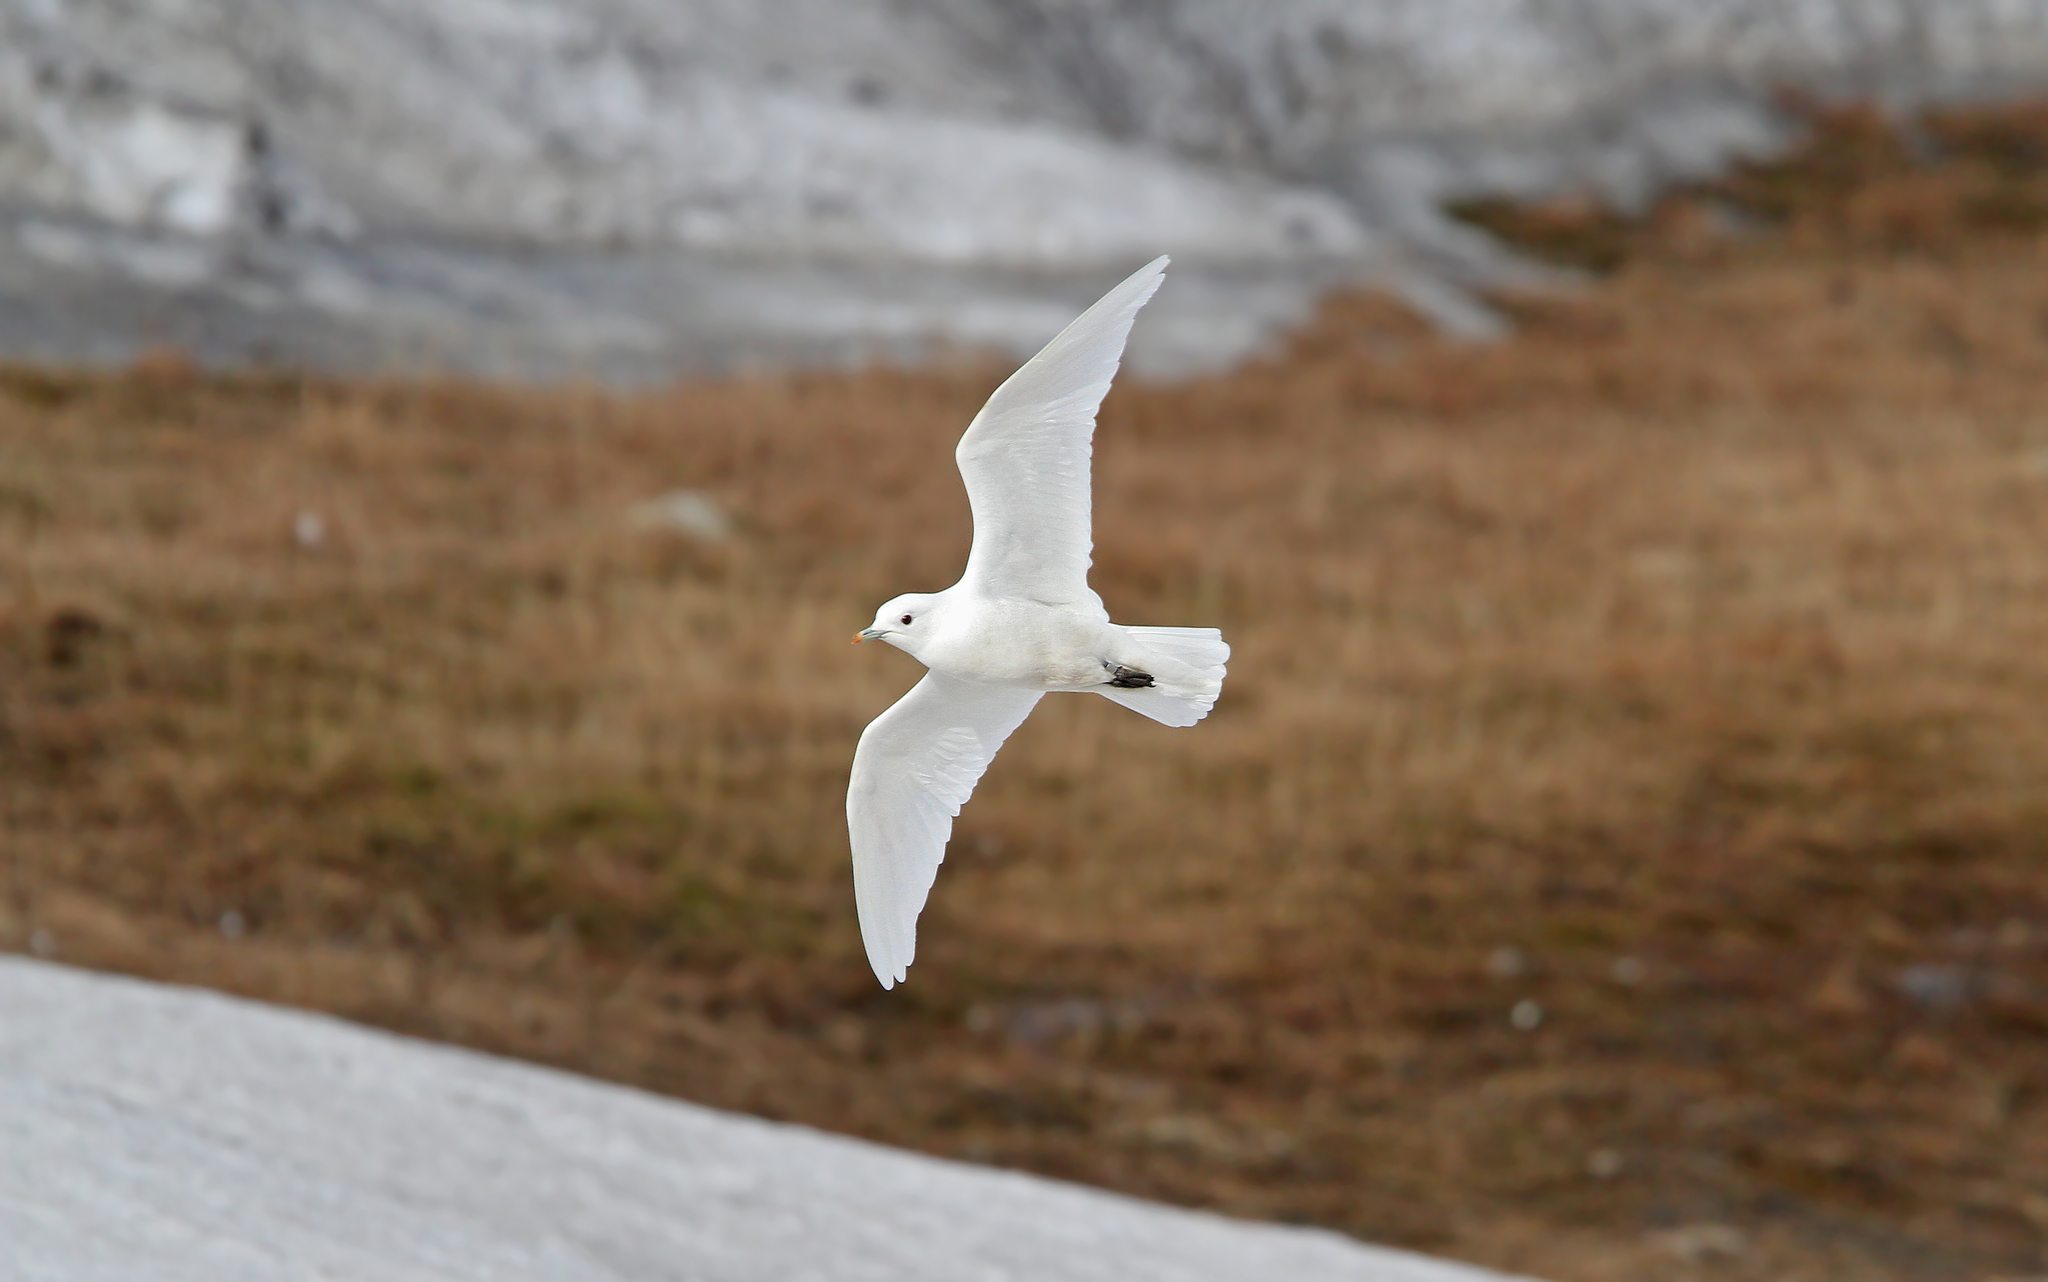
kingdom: Animalia
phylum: Chordata
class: Aves
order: Charadriiformes
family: Laridae
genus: Pagophila
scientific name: Pagophila eburnea
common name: Ivory gull
